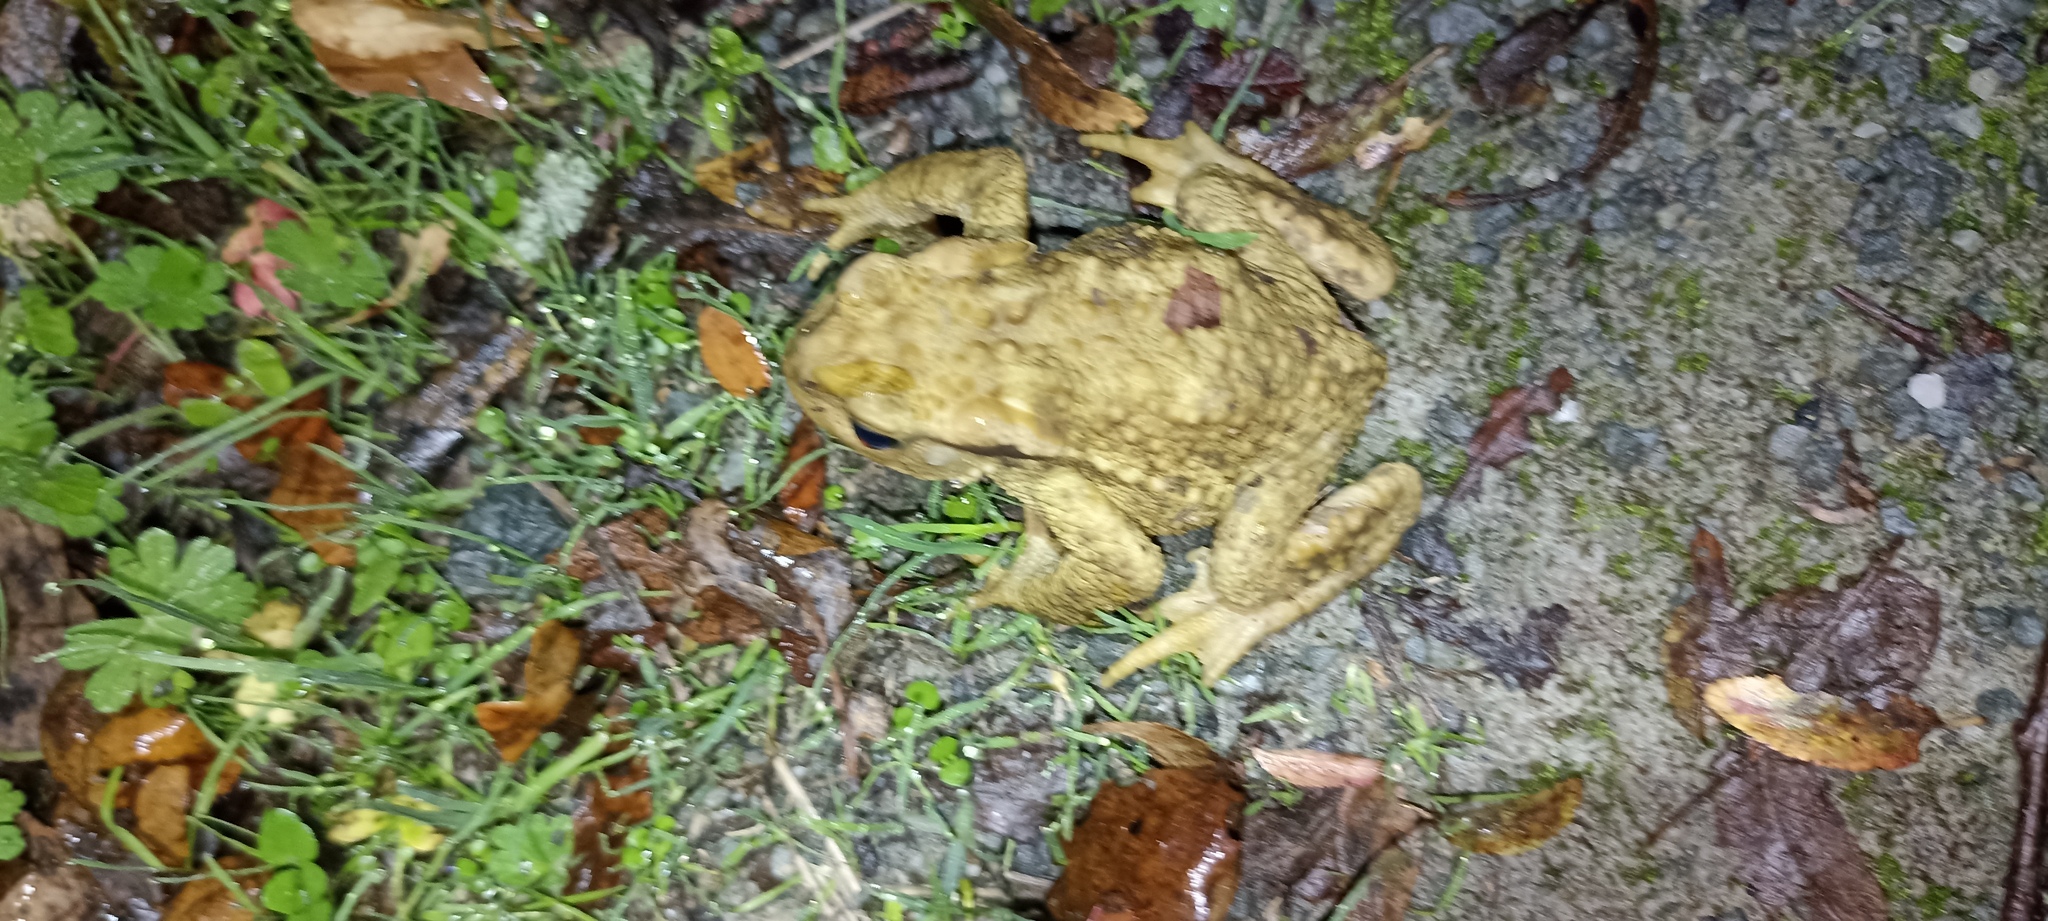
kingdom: Animalia
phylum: Chordata
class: Amphibia
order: Anura
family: Bufonidae
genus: Bufo
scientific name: Bufo spinosus
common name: Western common toad
